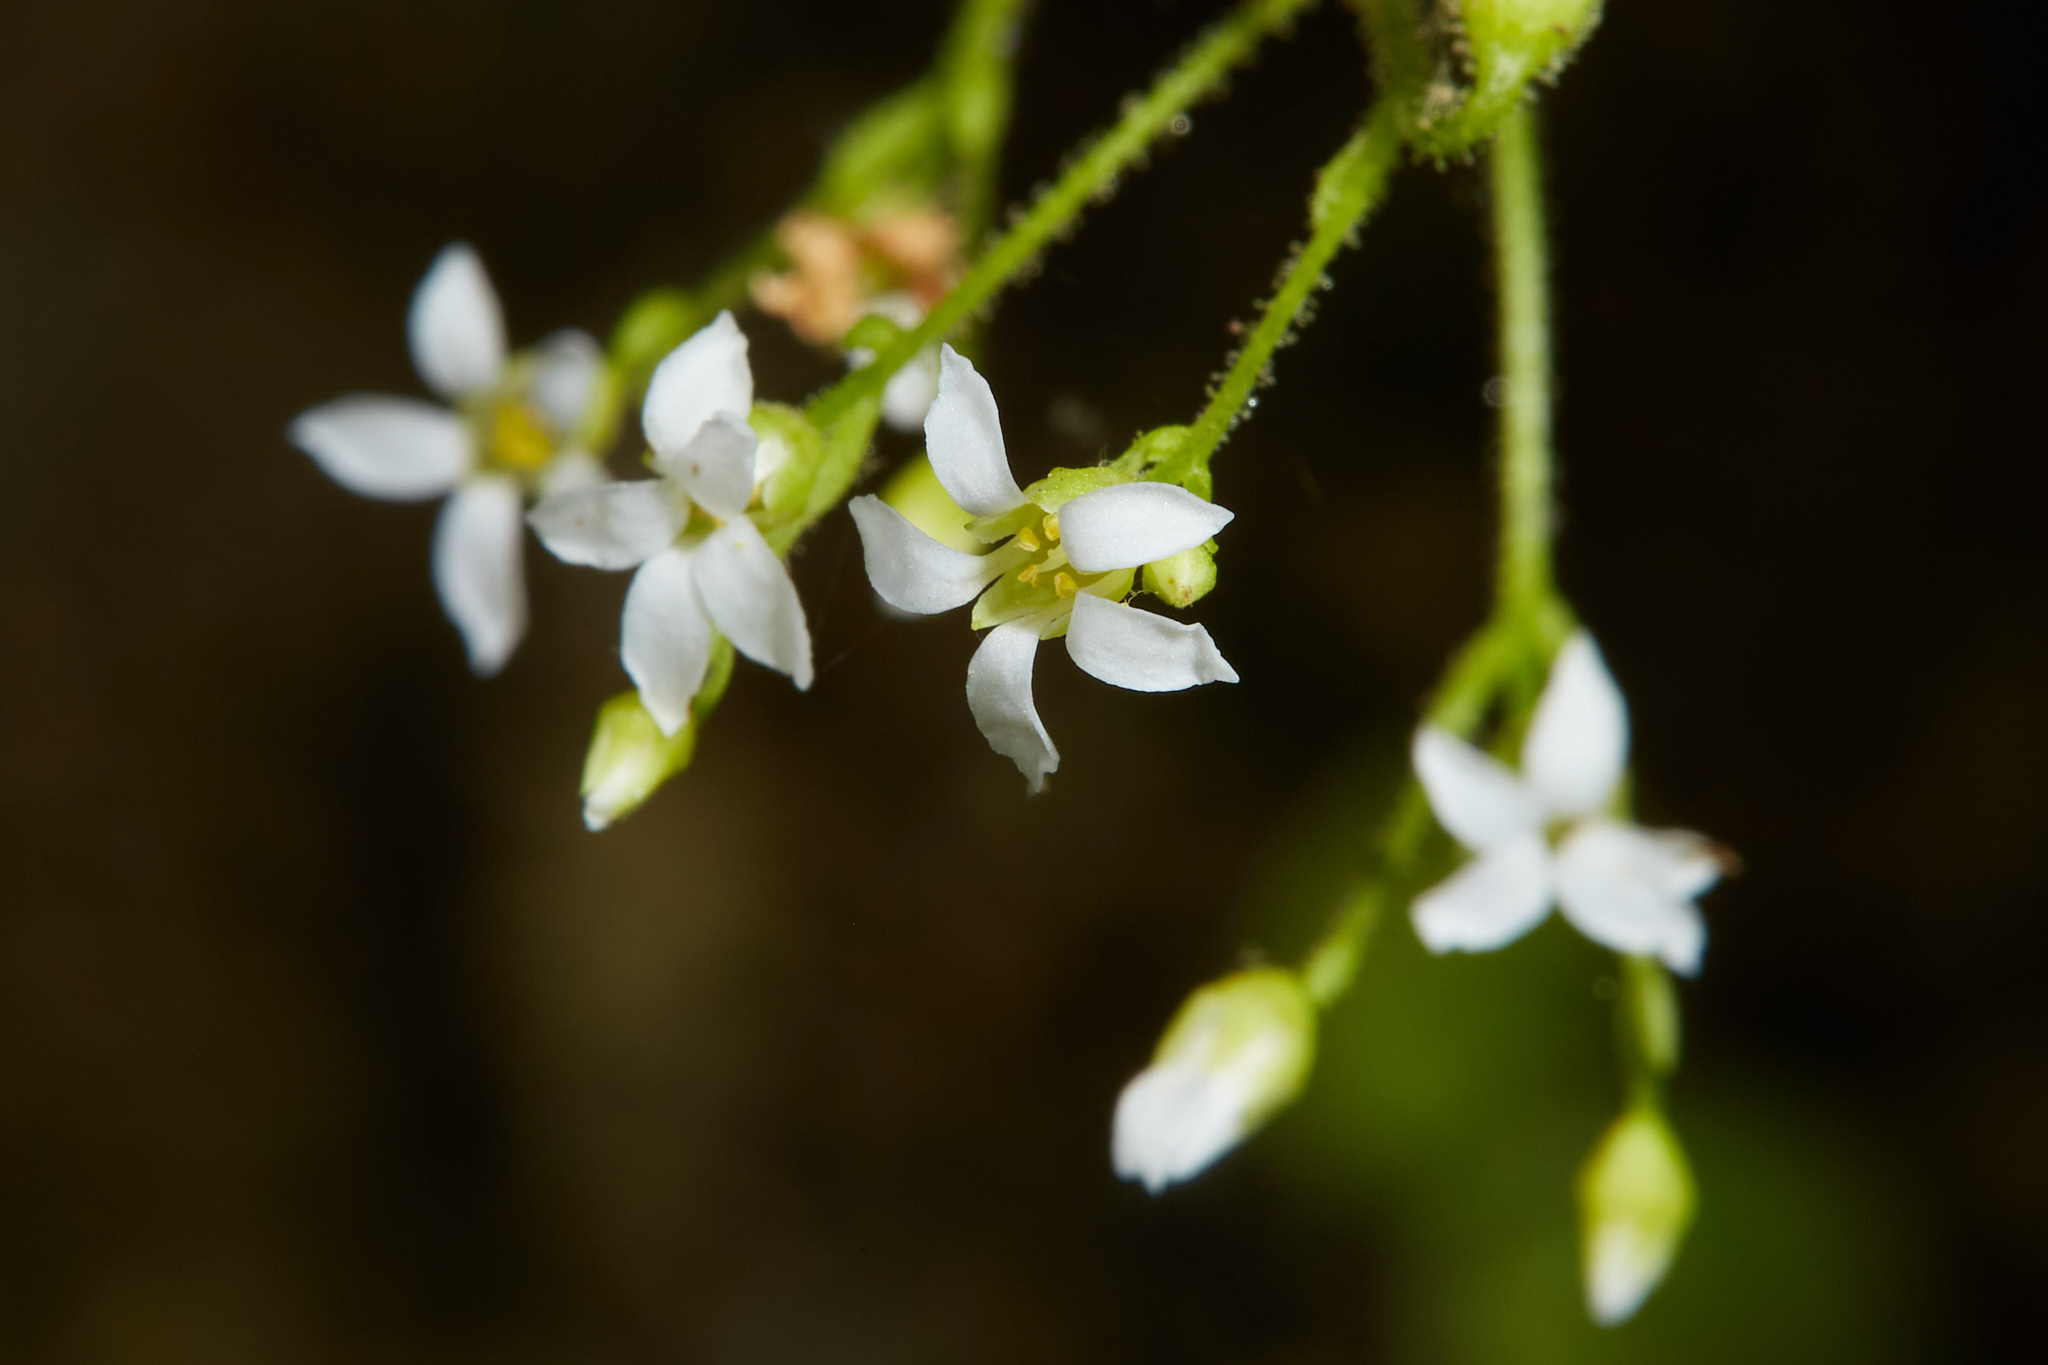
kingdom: Plantae
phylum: Tracheophyta
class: Magnoliopsida
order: Saxifragales
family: Saxifragaceae
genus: Sullivantia
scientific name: Sullivantia sullivantii
